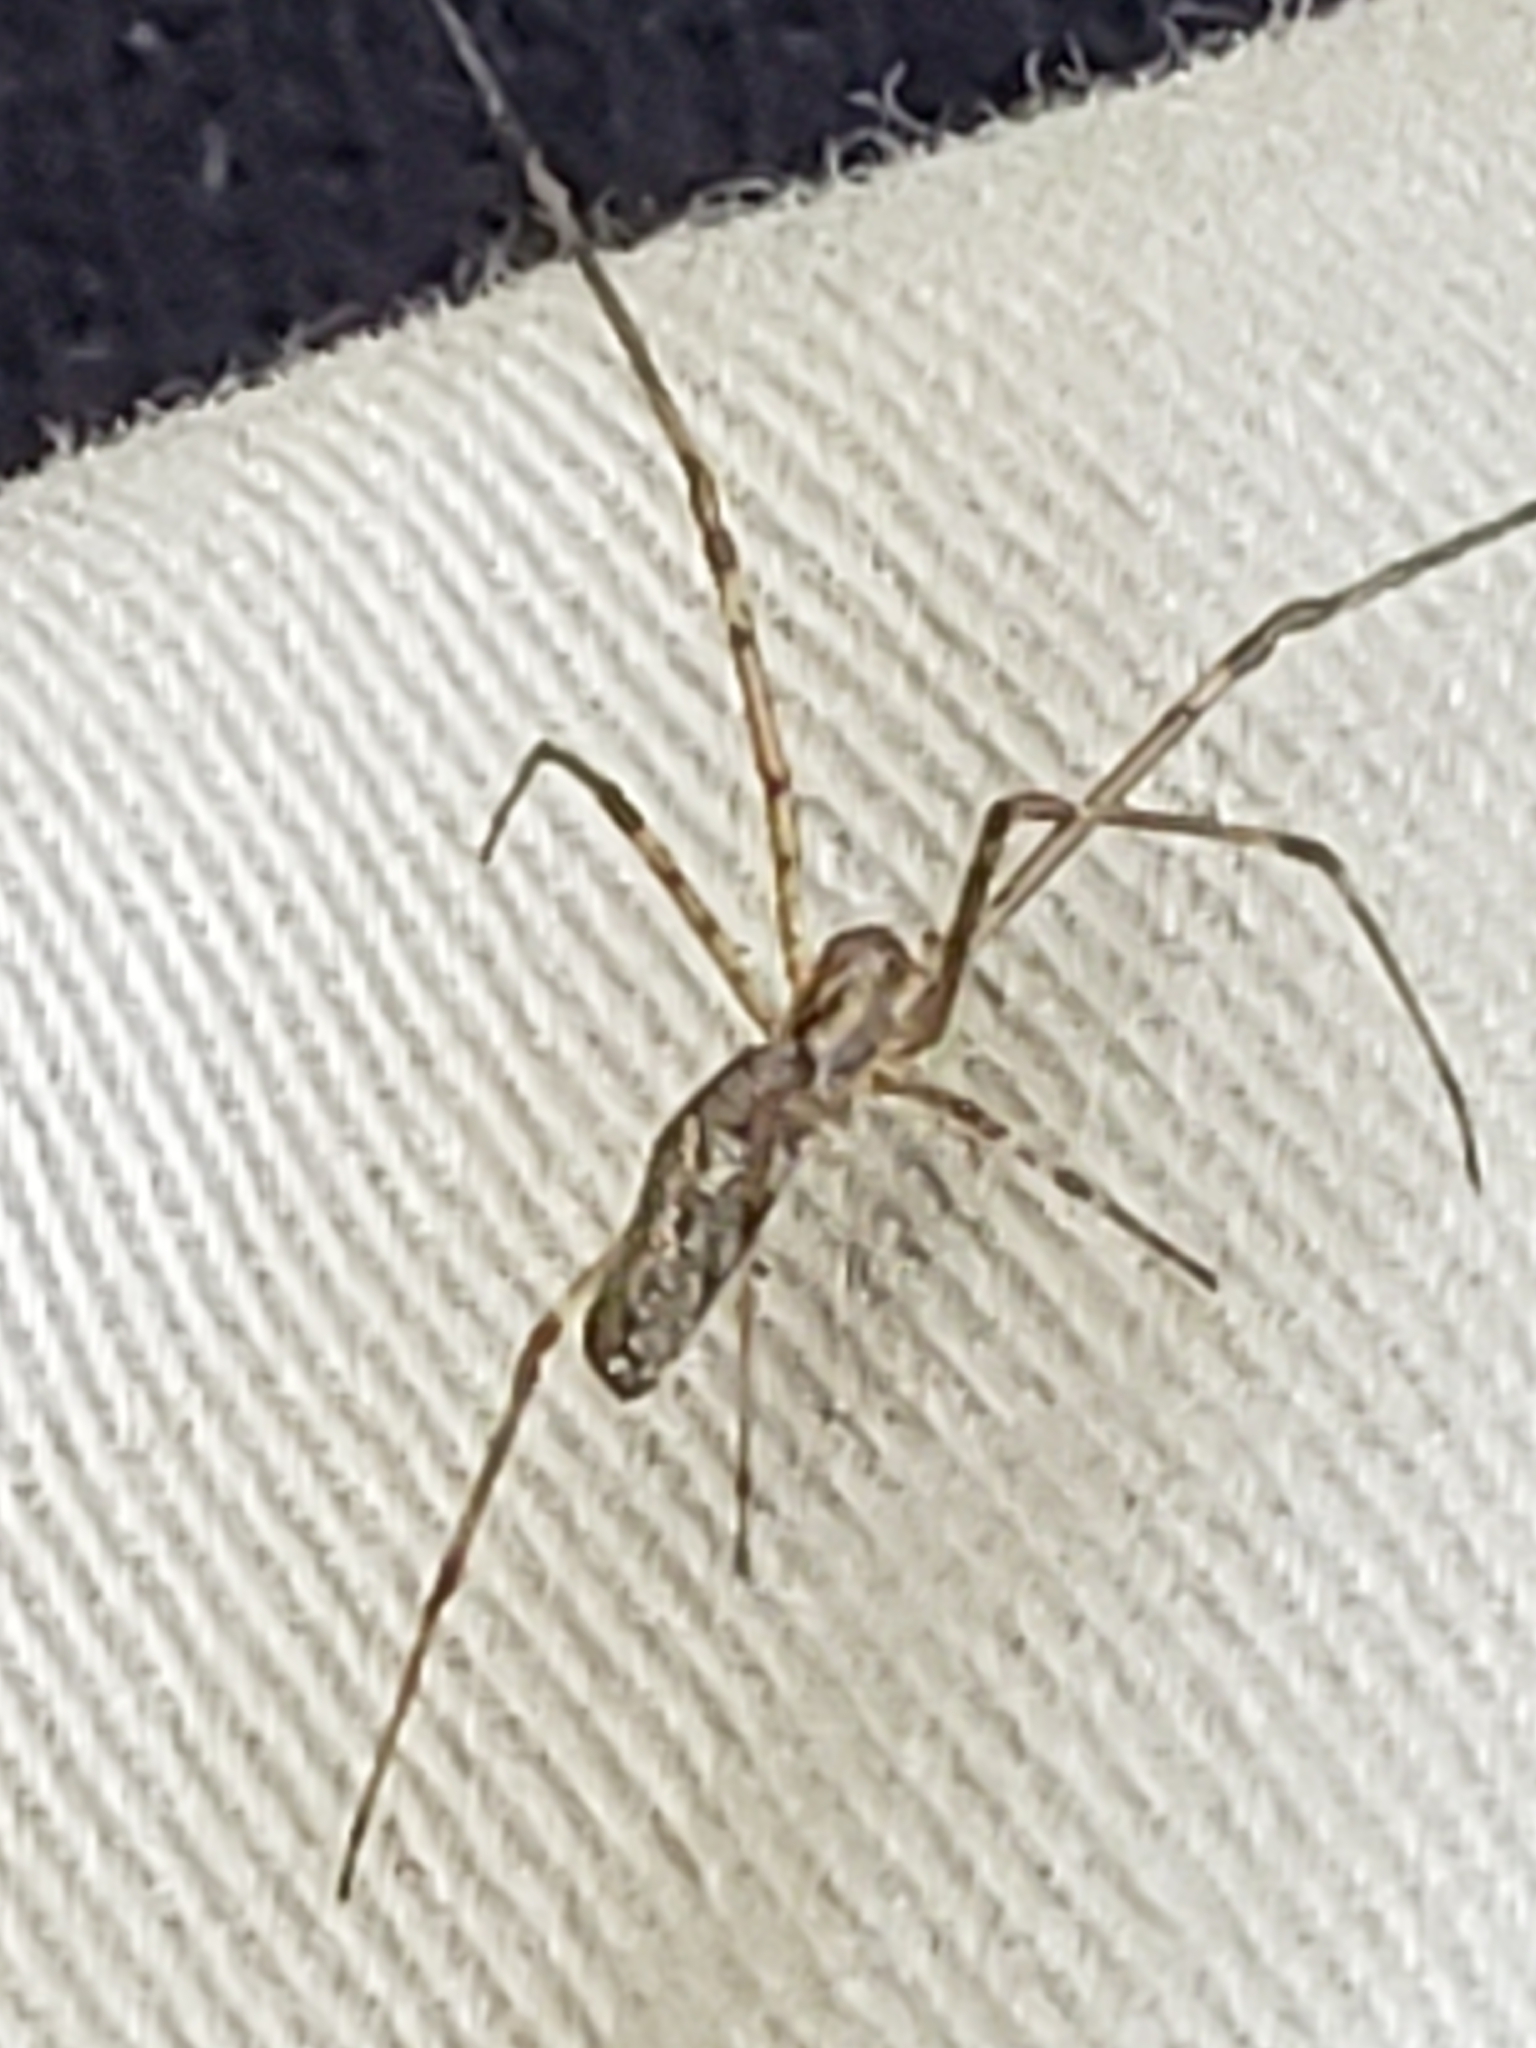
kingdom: Animalia
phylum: Arthropoda
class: Arachnida
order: Araneae
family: Tetragnathidae
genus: Tetragnatha
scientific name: Tetragnatha
